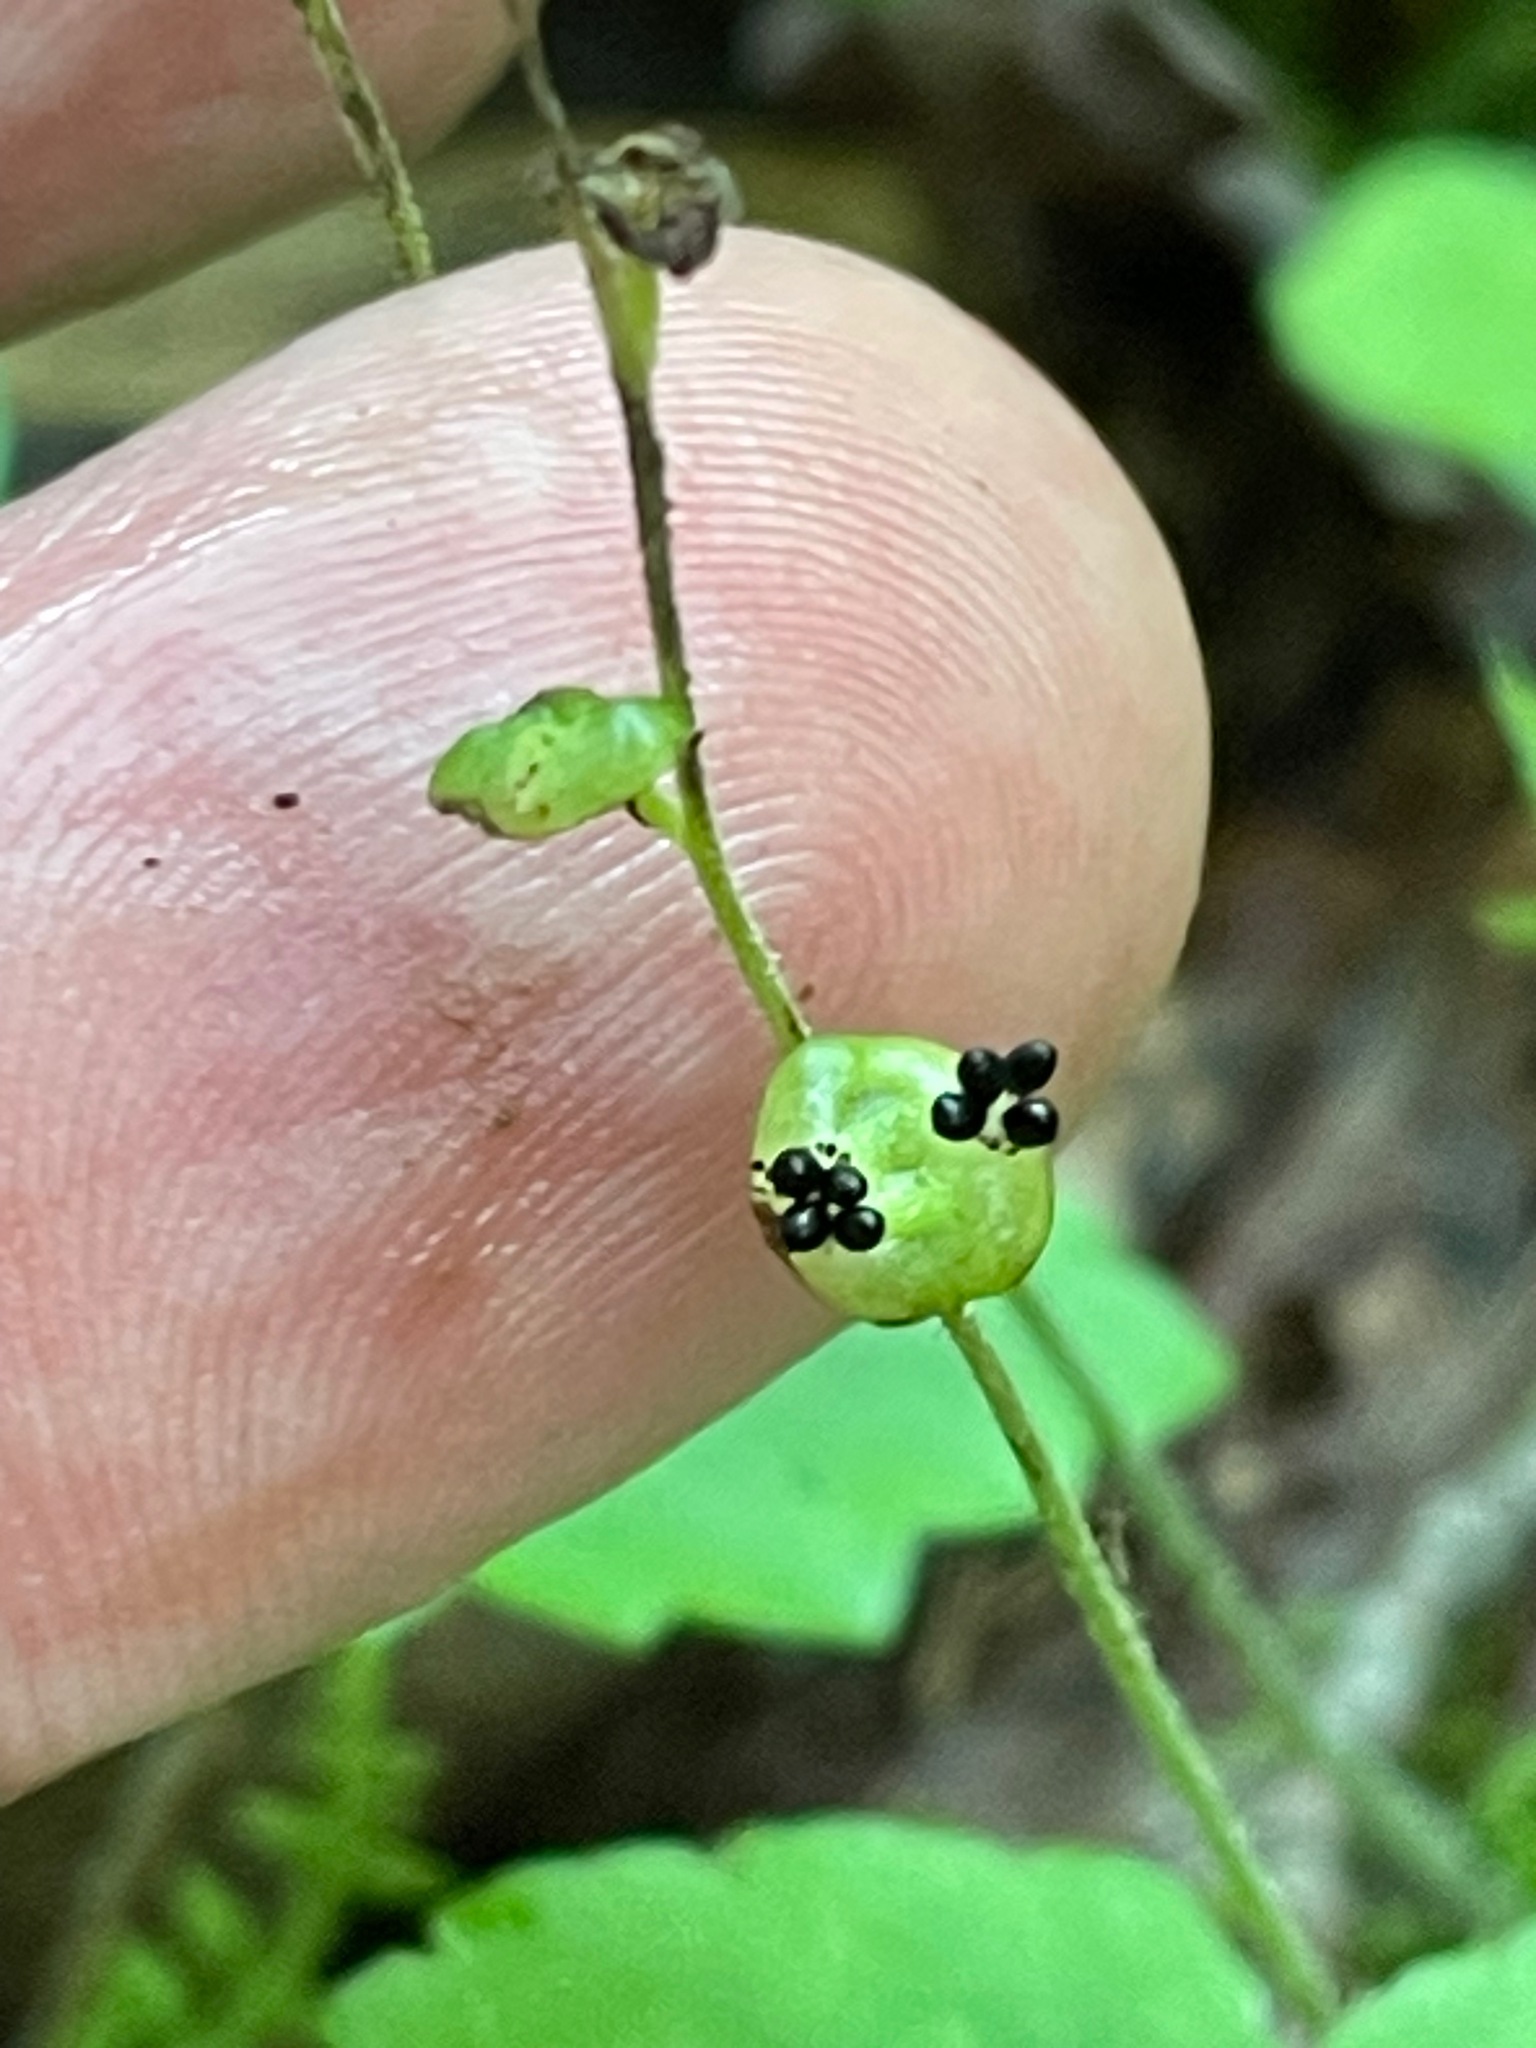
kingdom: Plantae
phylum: Tracheophyta
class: Magnoliopsida
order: Saxifragales
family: Saxifragaceae
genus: Mitella
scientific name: Mitella nuda
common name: Bare-stemmed bishop's-cap
